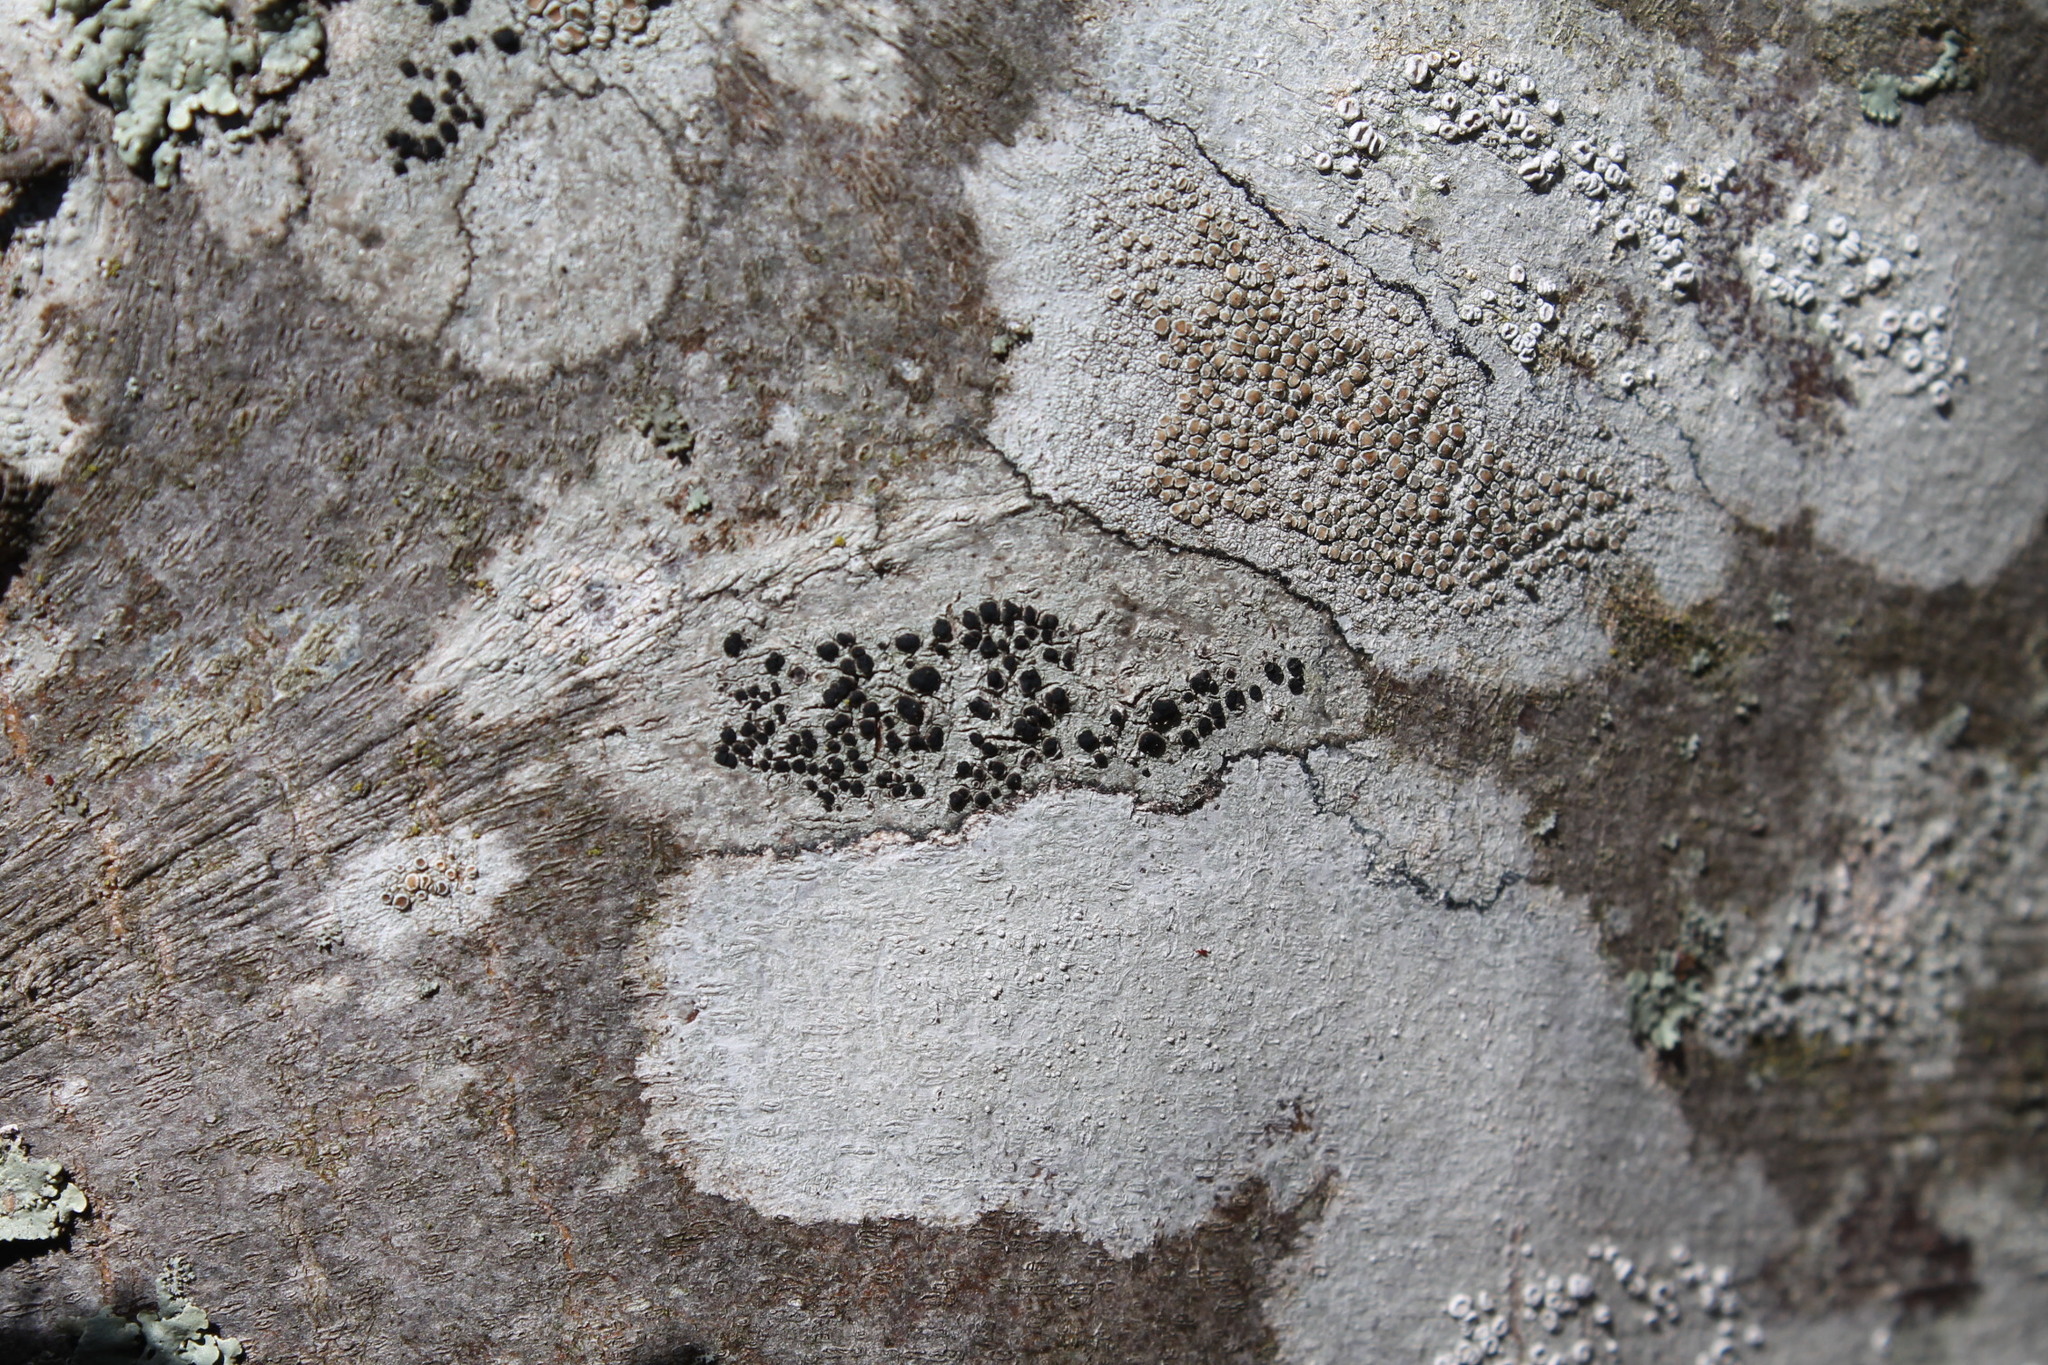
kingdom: Fungi
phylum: Ascomycota
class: Lecanoromycetes
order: Caliciales
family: Caliciaceae
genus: Buellia
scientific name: Buellia erubescens
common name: Common button lichen
